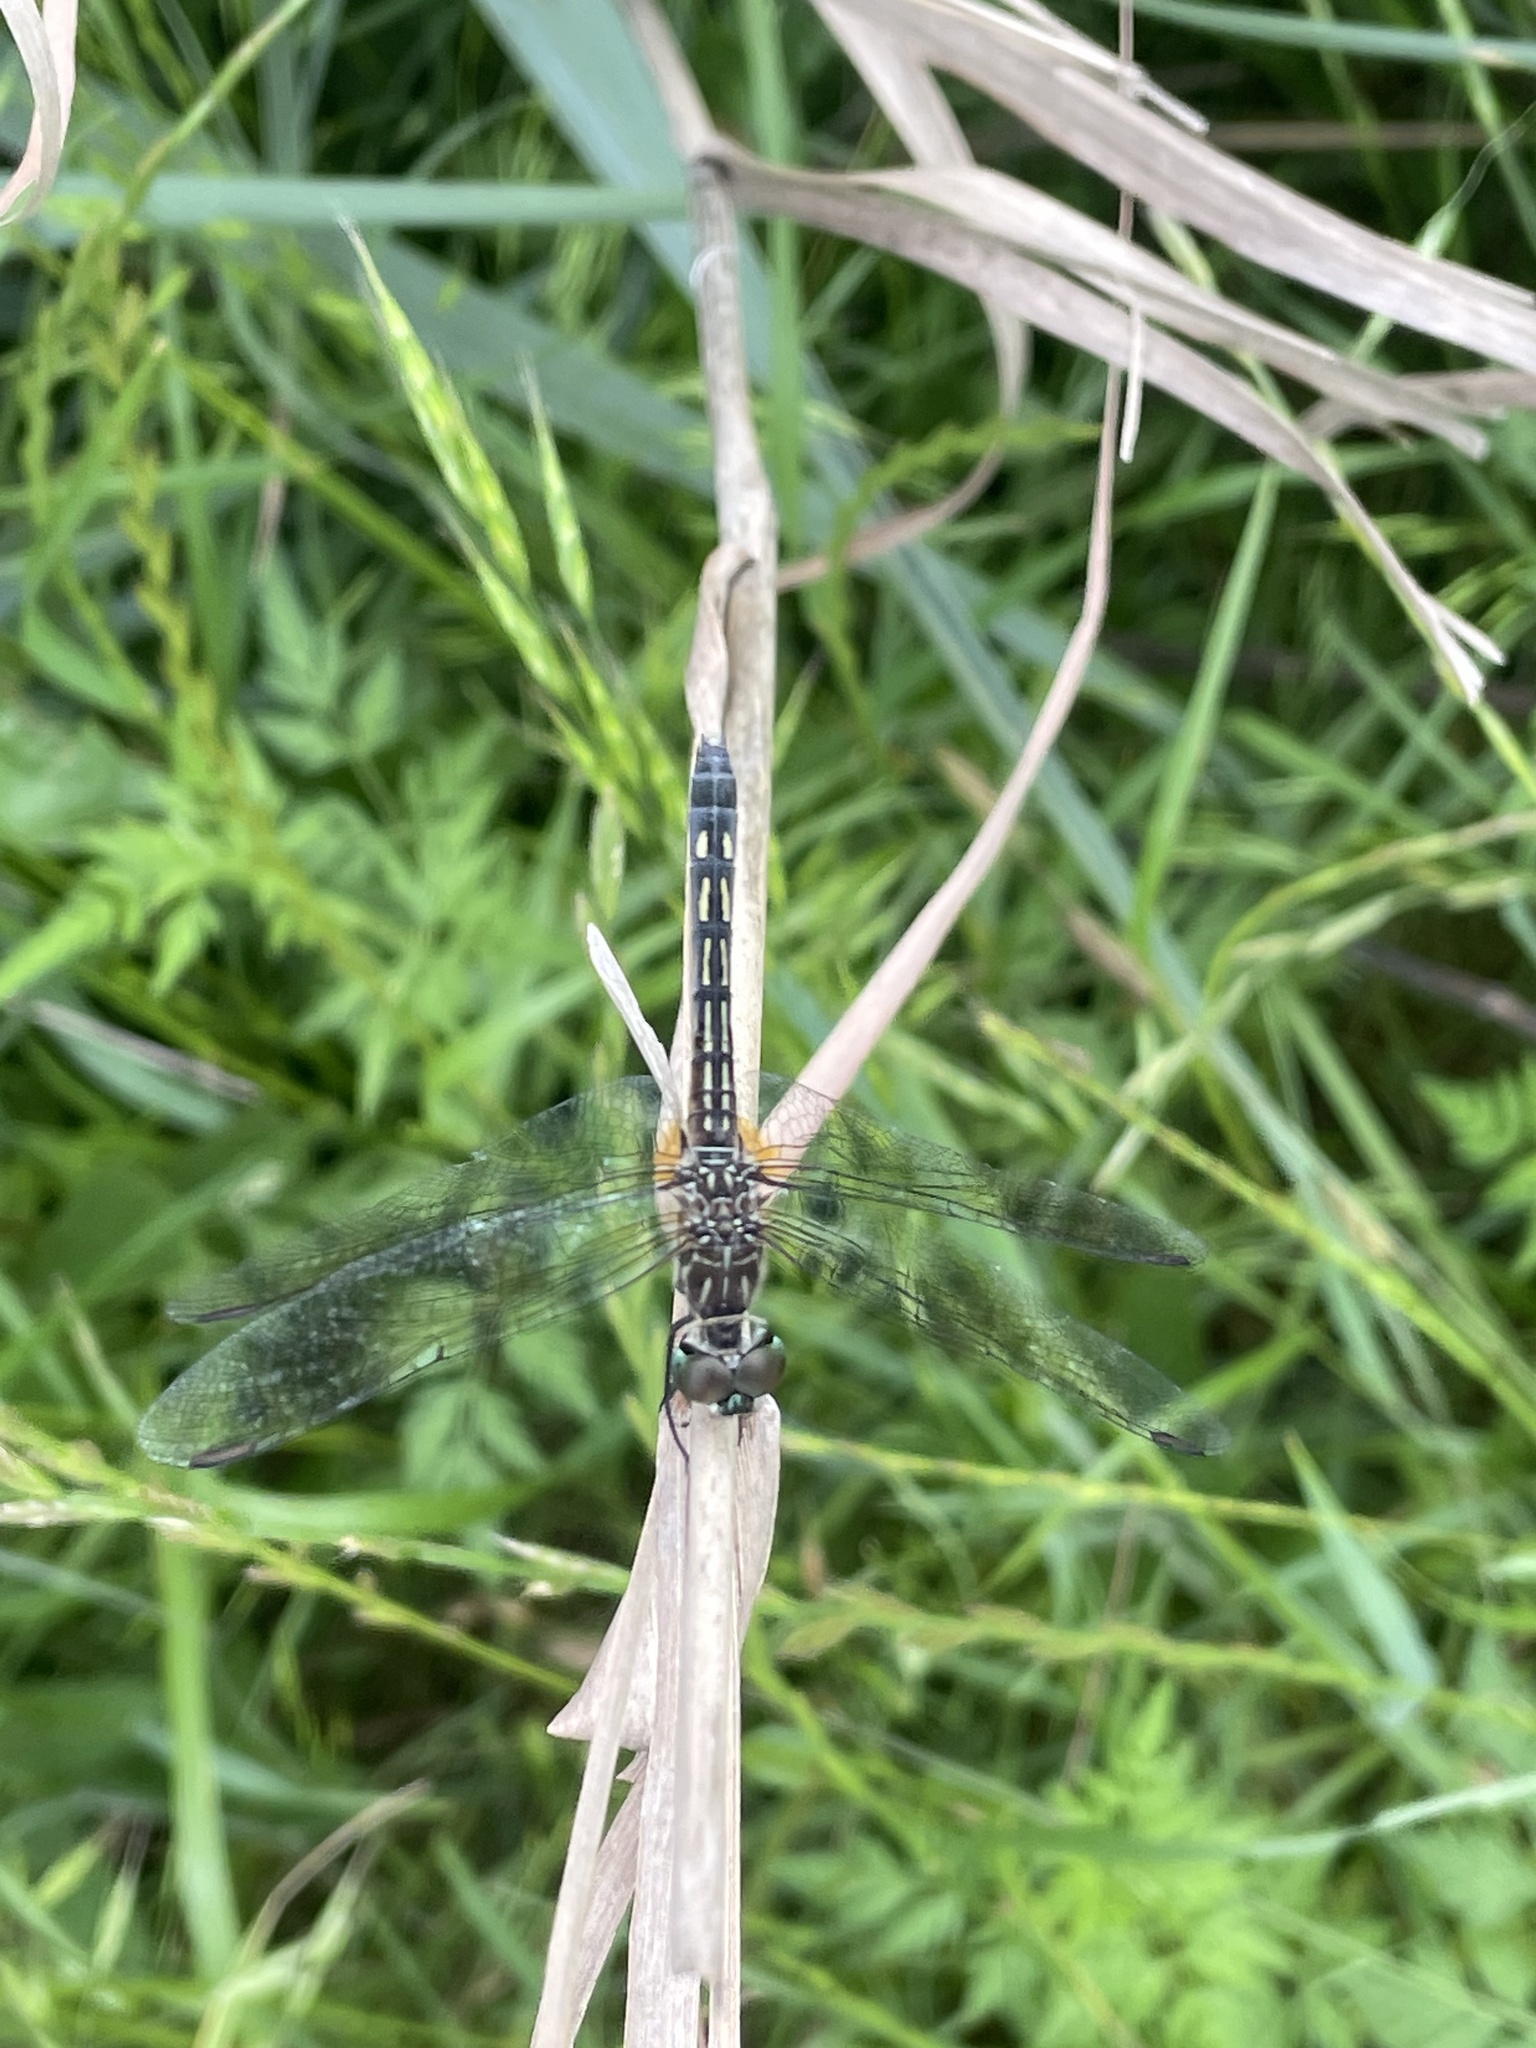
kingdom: Animalia
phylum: Arthropoda
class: Insecta
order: Odonata
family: Libellulidae
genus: Pachydiplax
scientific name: Pachydiplax longipennis
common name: Blue dasher
